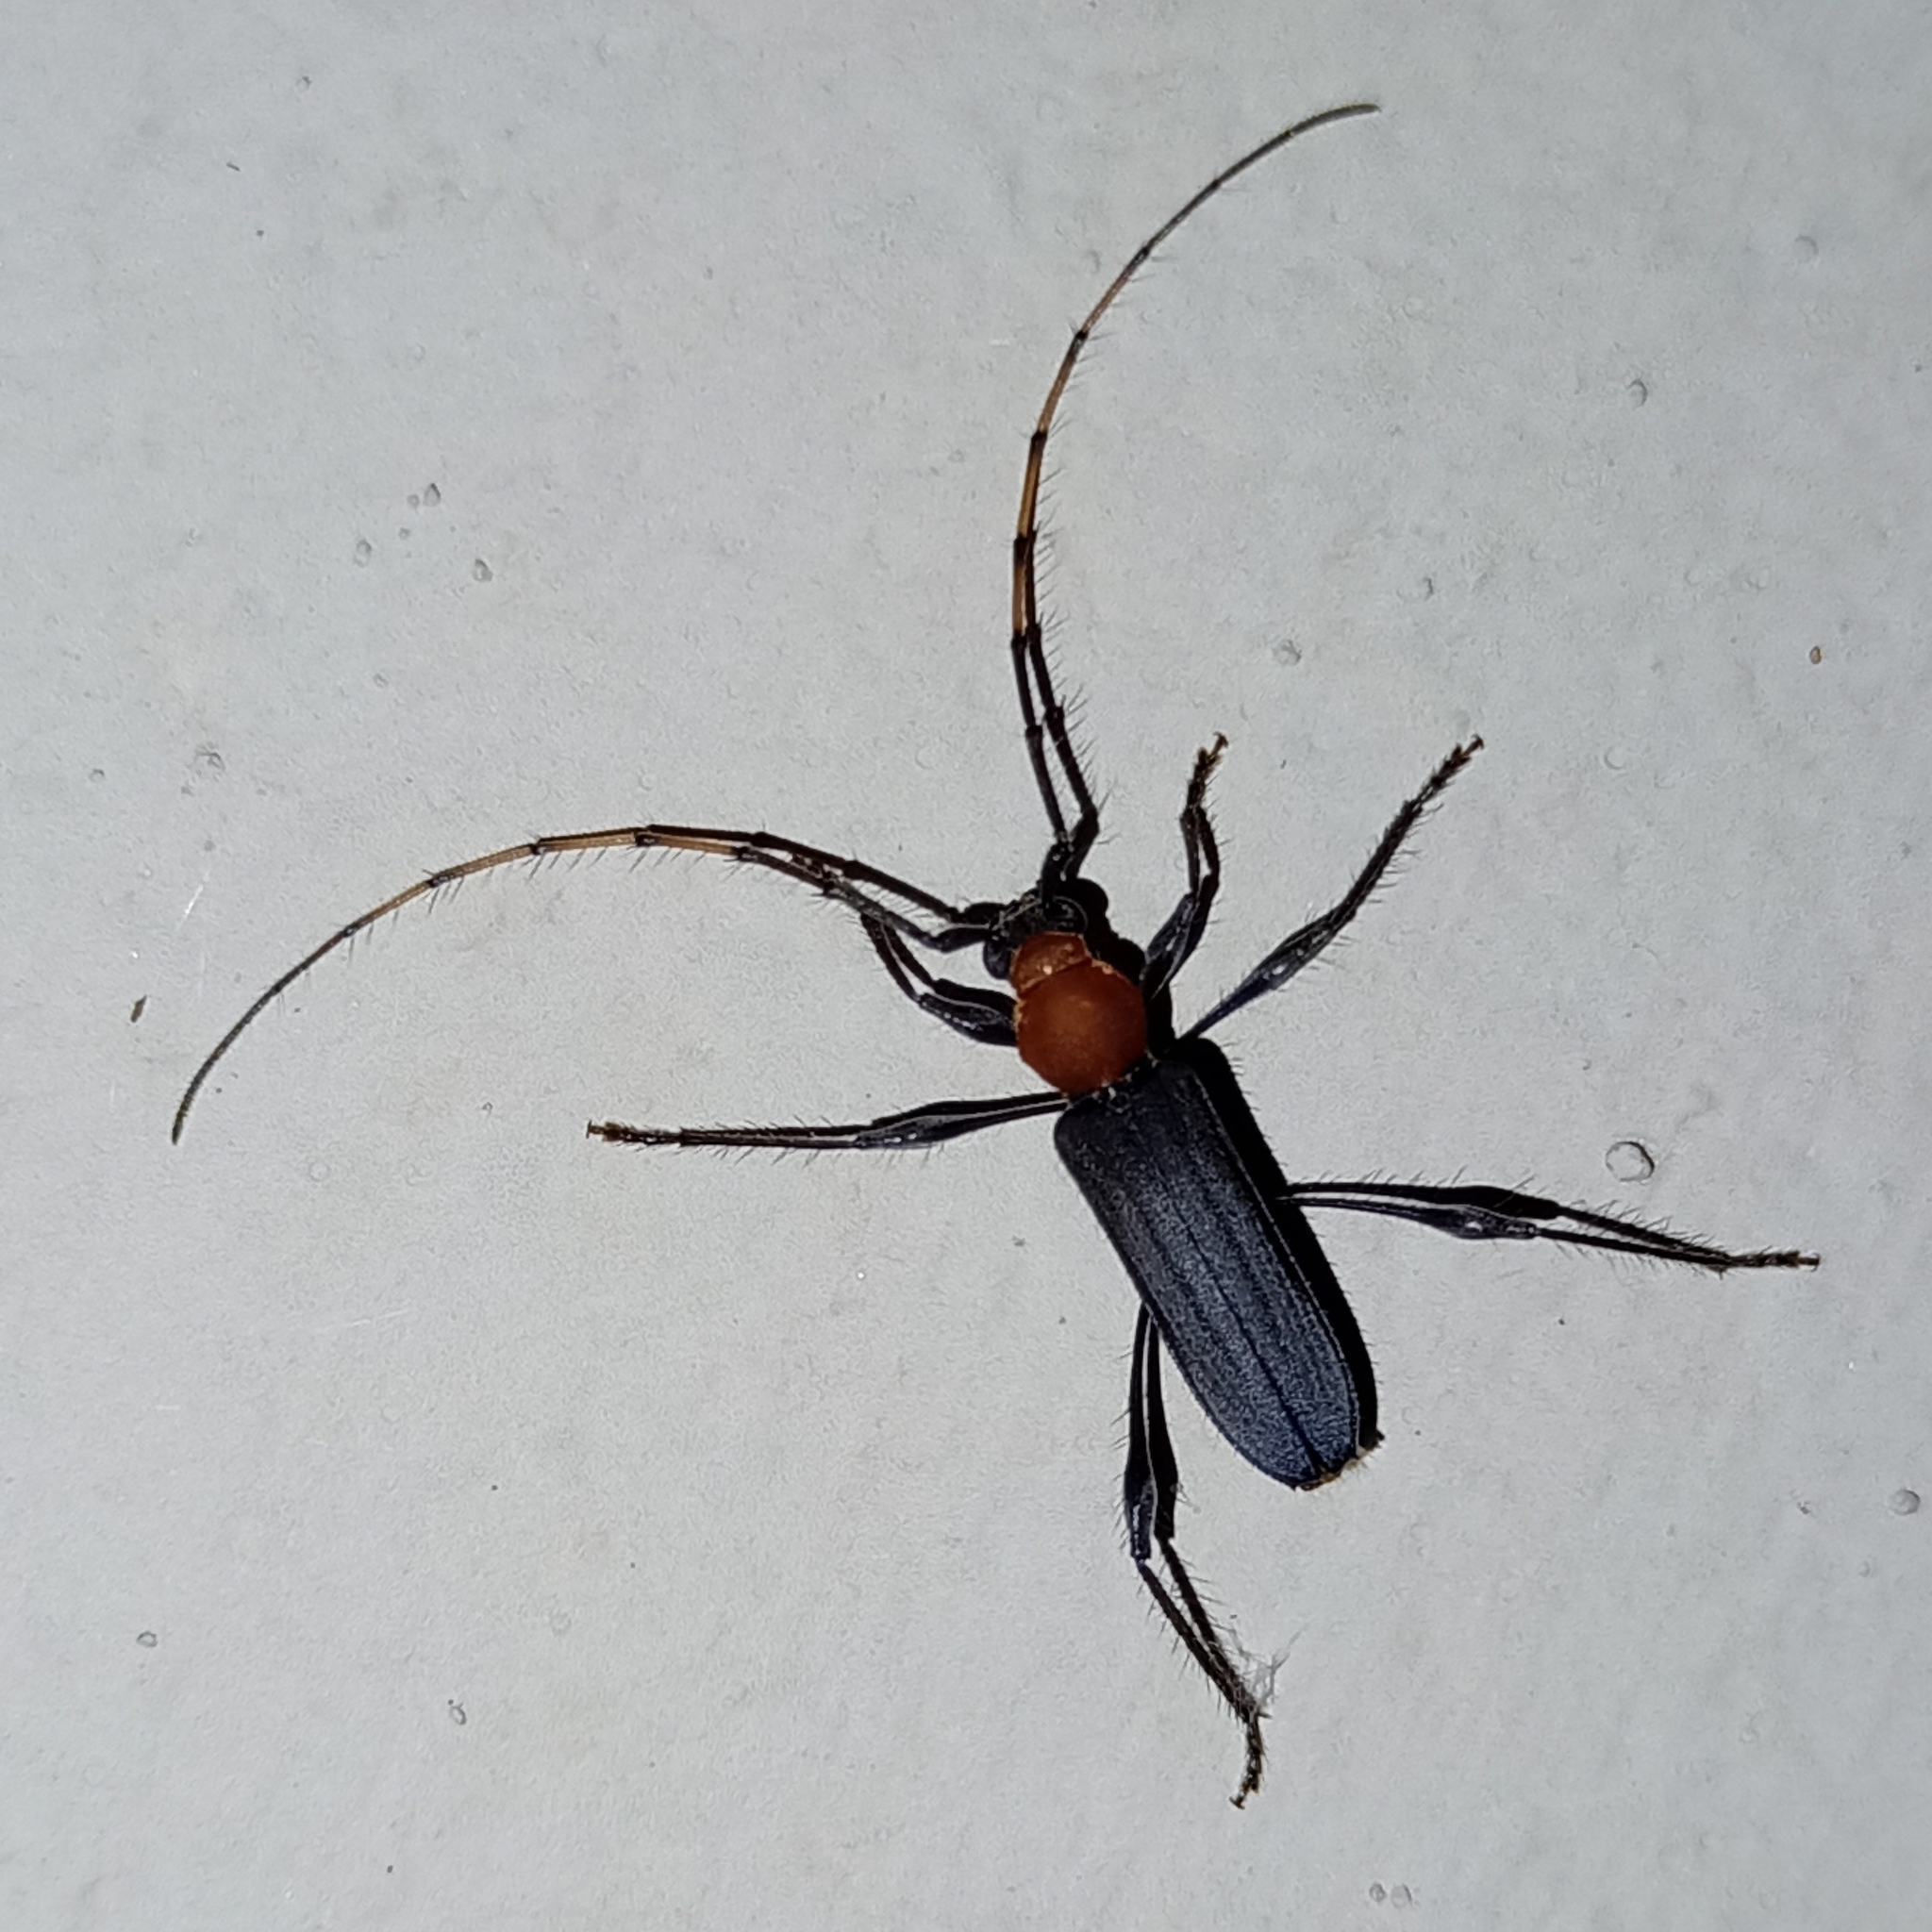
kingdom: Animalia
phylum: Arthropoda
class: Insecta
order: Coleoptera
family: Cerambycidae
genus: Terpnissa
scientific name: Terpnissa listropterina
